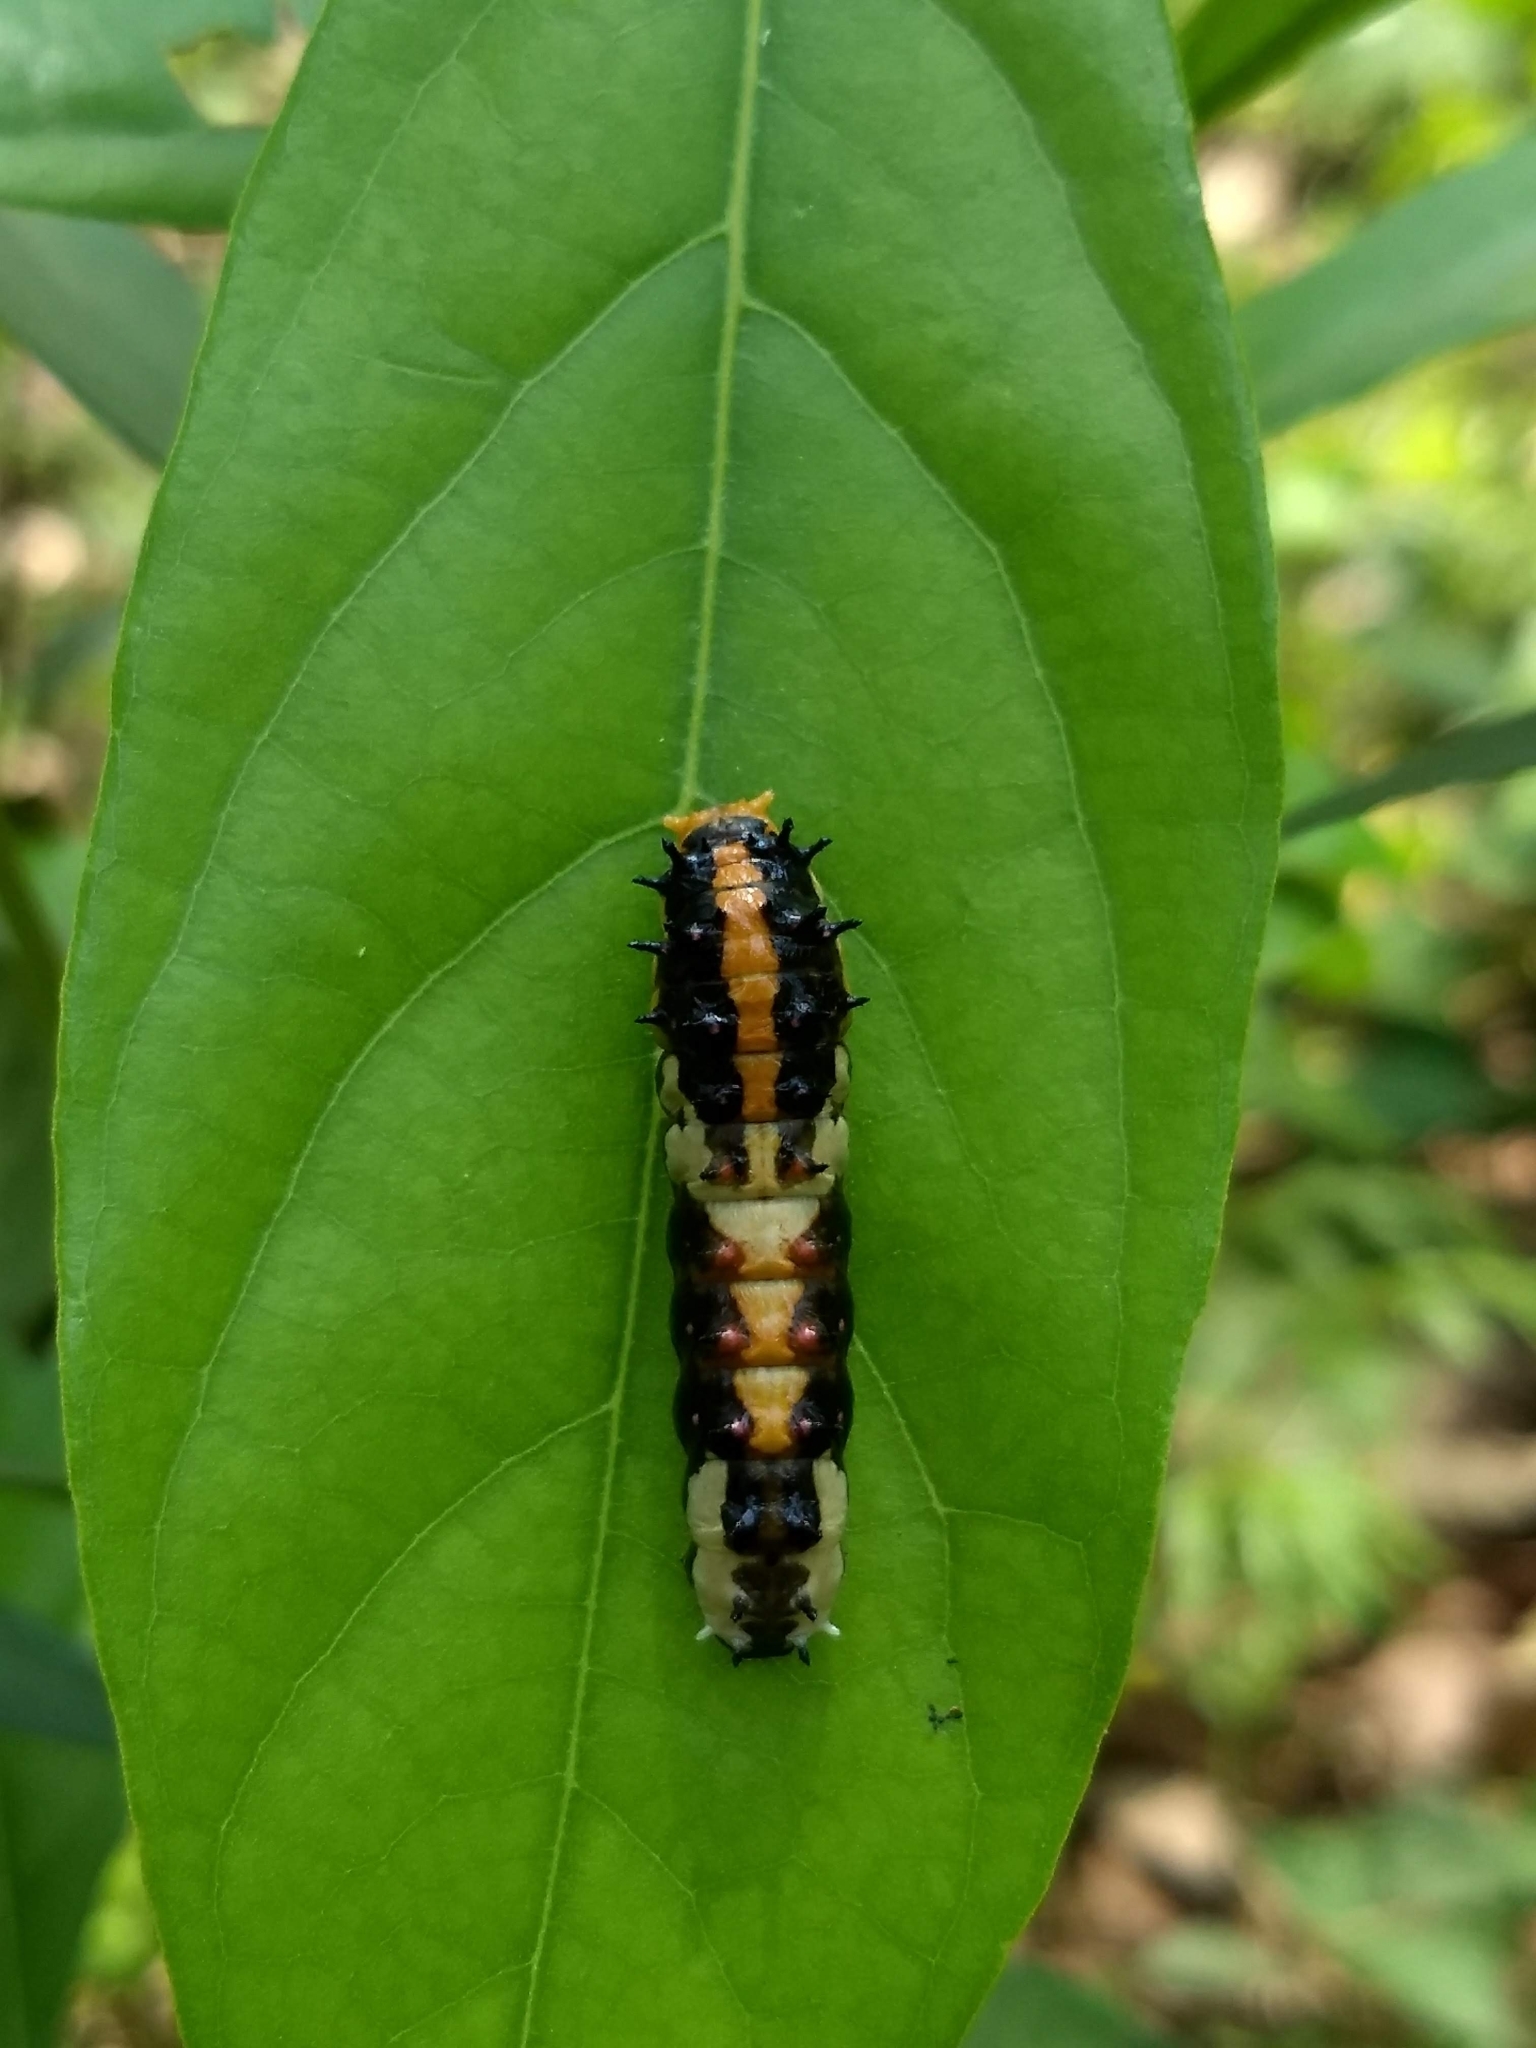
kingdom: Animalia
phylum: Arthropoda
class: Insecta
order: Lepidoptera
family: Papilionidae
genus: Chilasa
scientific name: Chilasa clytia
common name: Common mime
